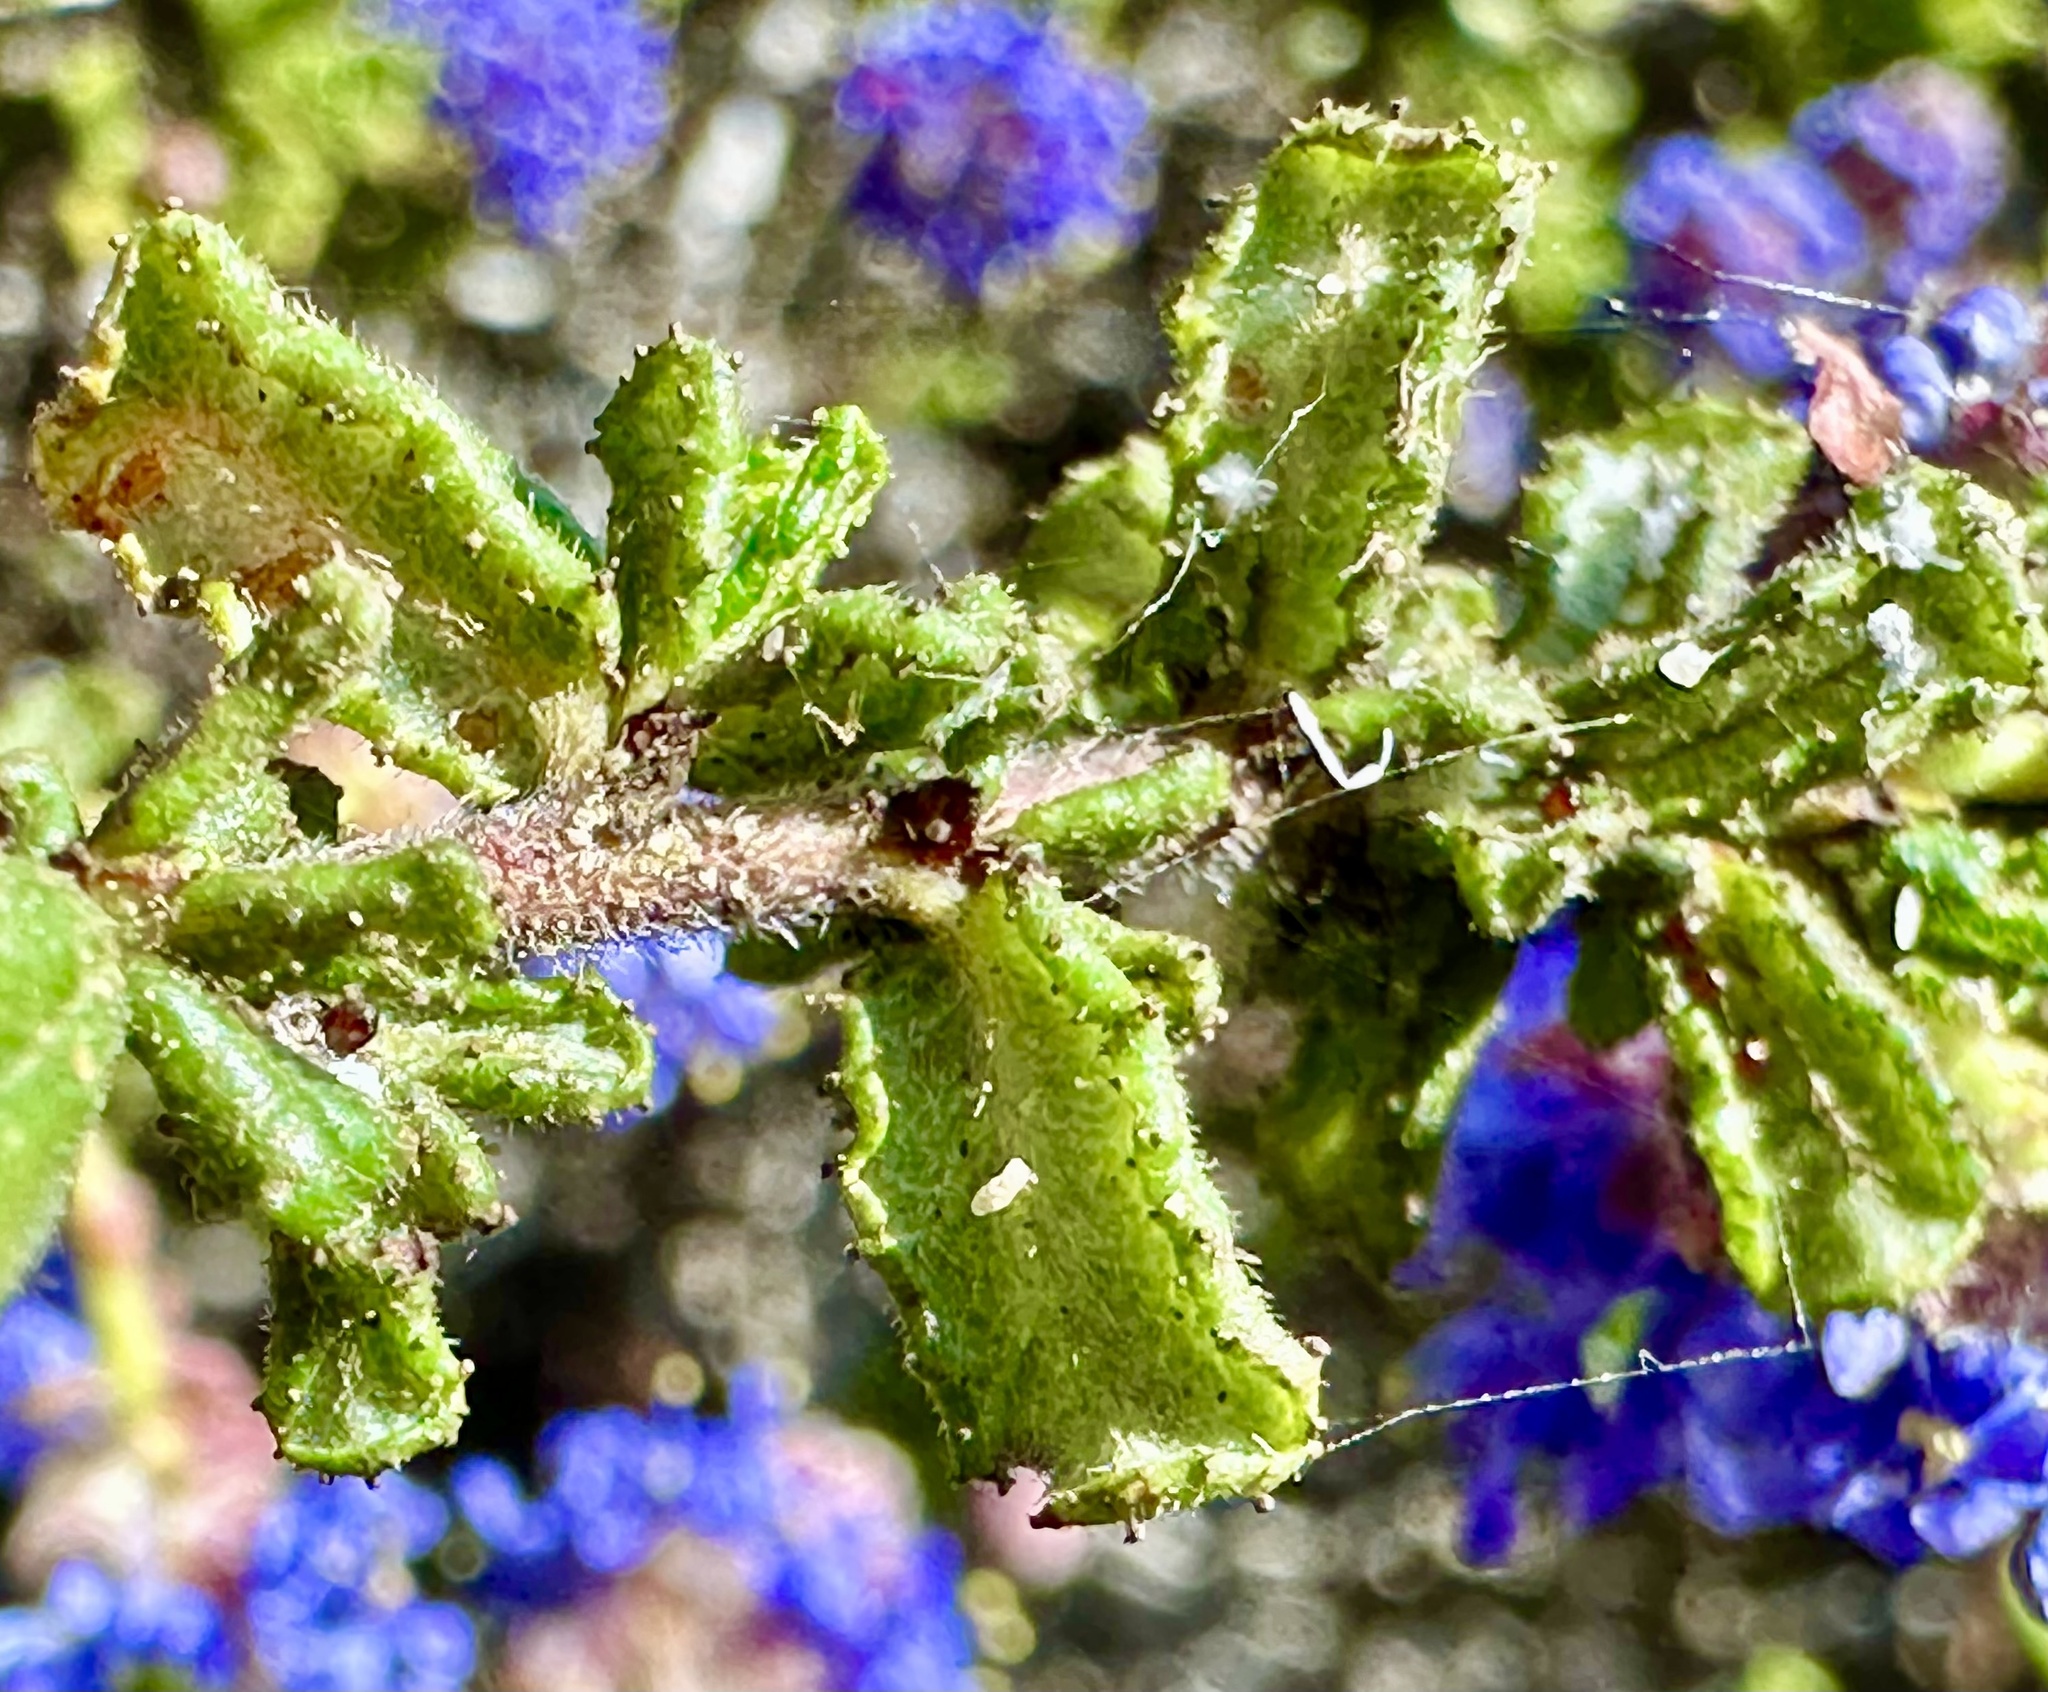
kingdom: Plantae
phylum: Tracheophyta
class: Magnoliopsida
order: Rosales
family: Rhamnaceae
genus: Ceanothus
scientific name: Ceanothus dentatus
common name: Crop-leaf ceanothus
